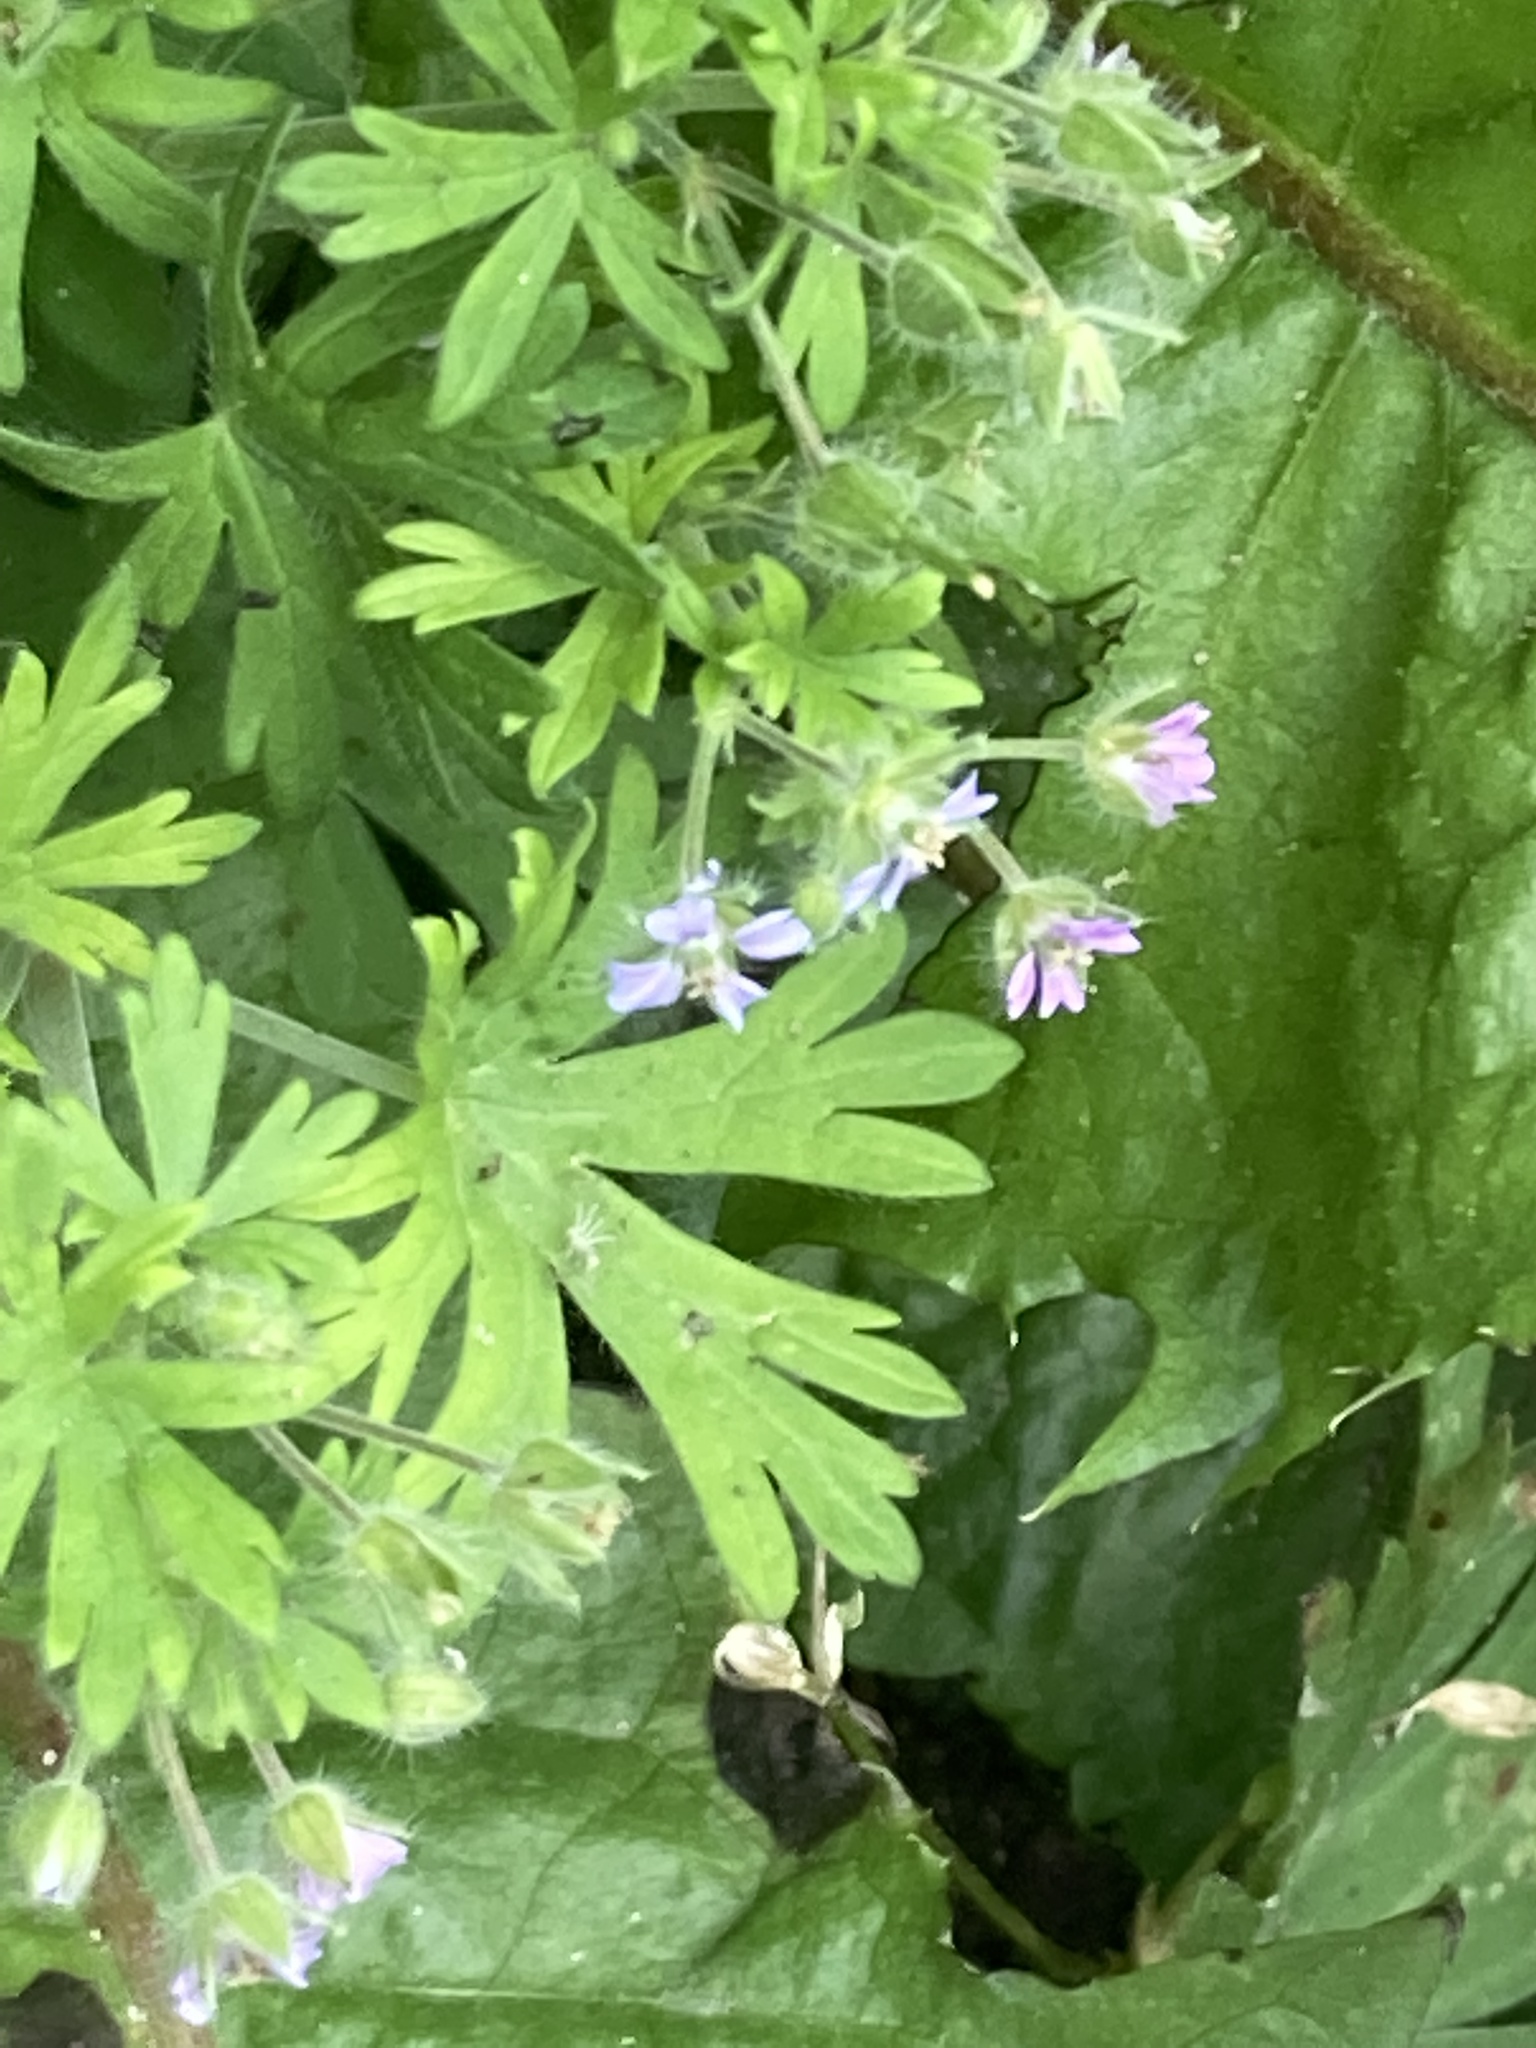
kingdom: Plantae
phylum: Tracheophyta
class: Magnoliopsida
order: Geraniales
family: Geraniaceae
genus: Geranium
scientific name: Geranium pusillum
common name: Small geranium
